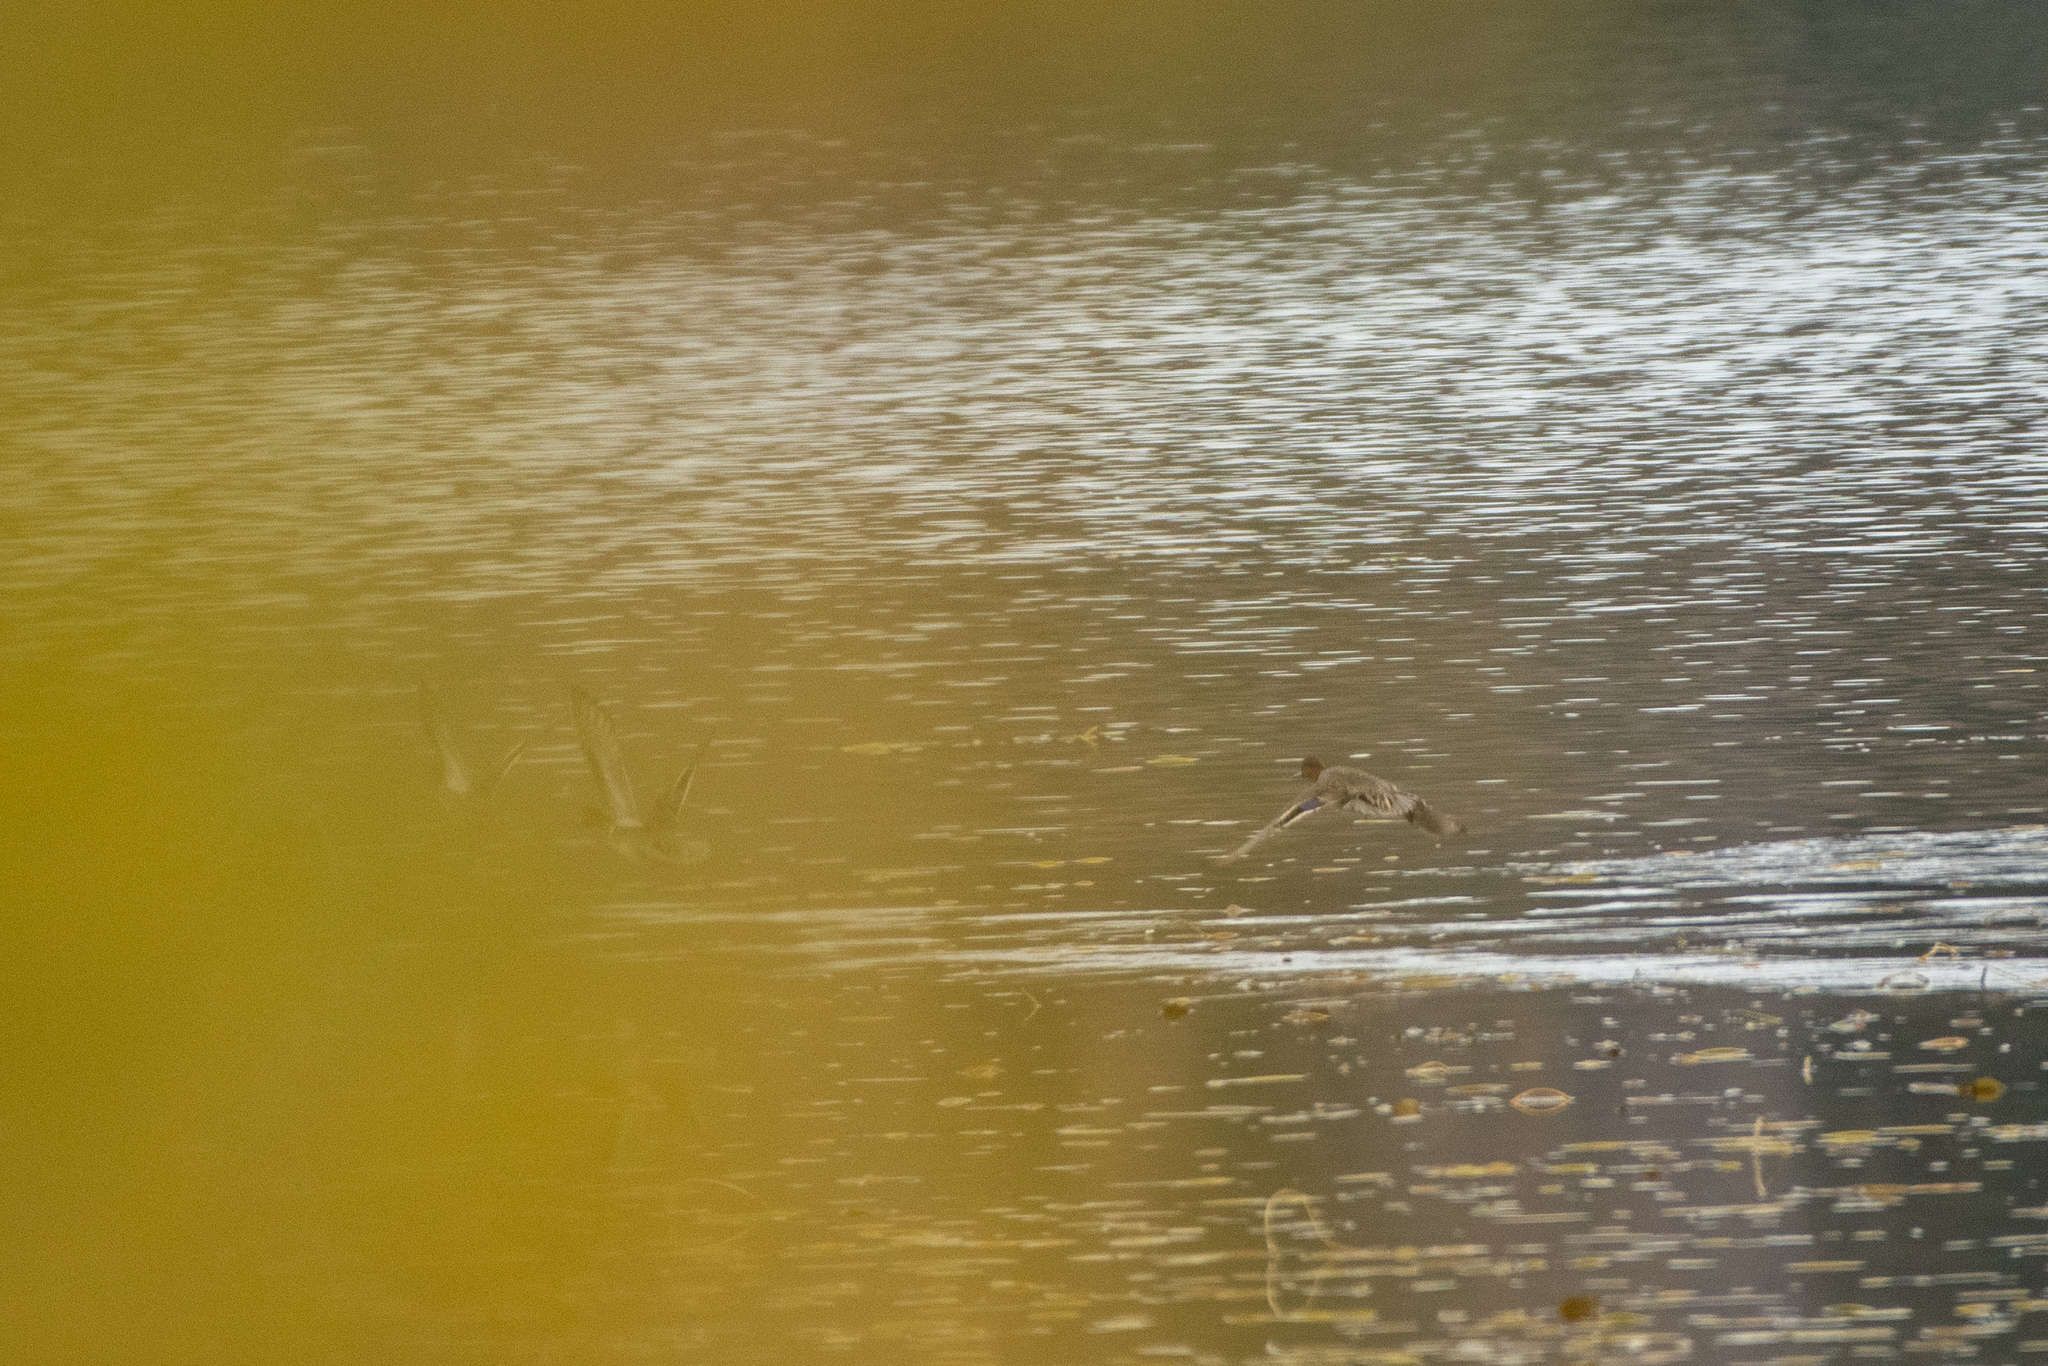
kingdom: Animalia
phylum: Chordata
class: Aves
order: Anseriformes
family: Anatidae
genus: Anas
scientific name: Anas crecca
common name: Eurasian teal
